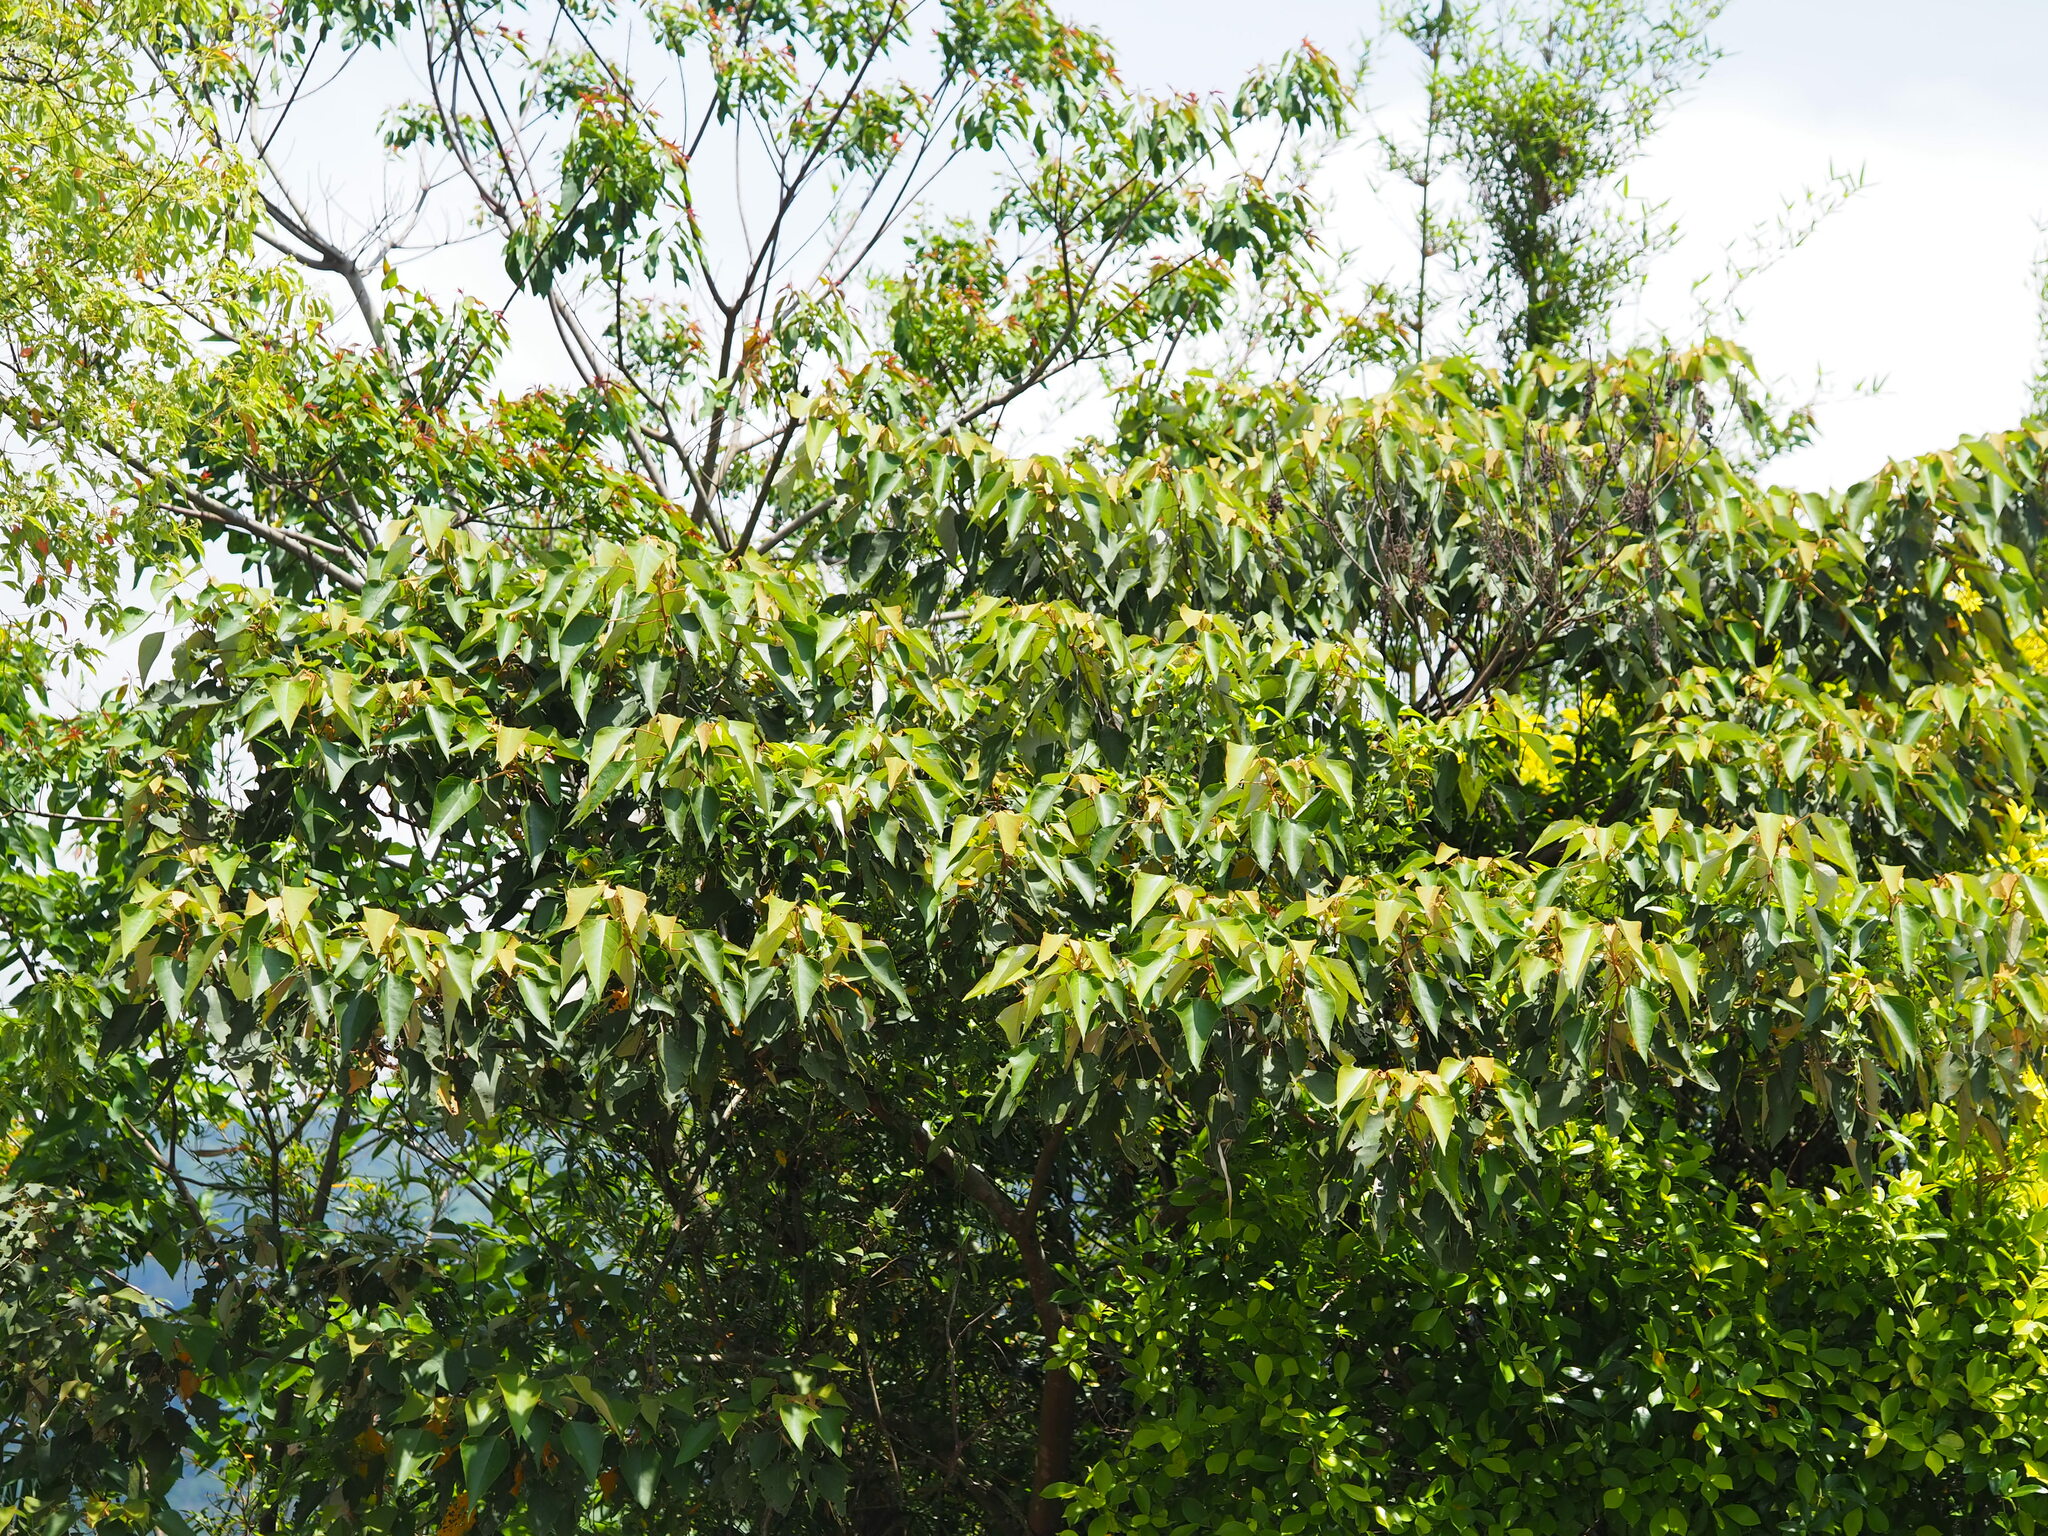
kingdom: Plantae
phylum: Tracheophyta
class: Magnoliopsida
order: Malpighiales
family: Euphorbiaceae
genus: Aleurites
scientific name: Aleurites moluccanus
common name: Candlenut tree
